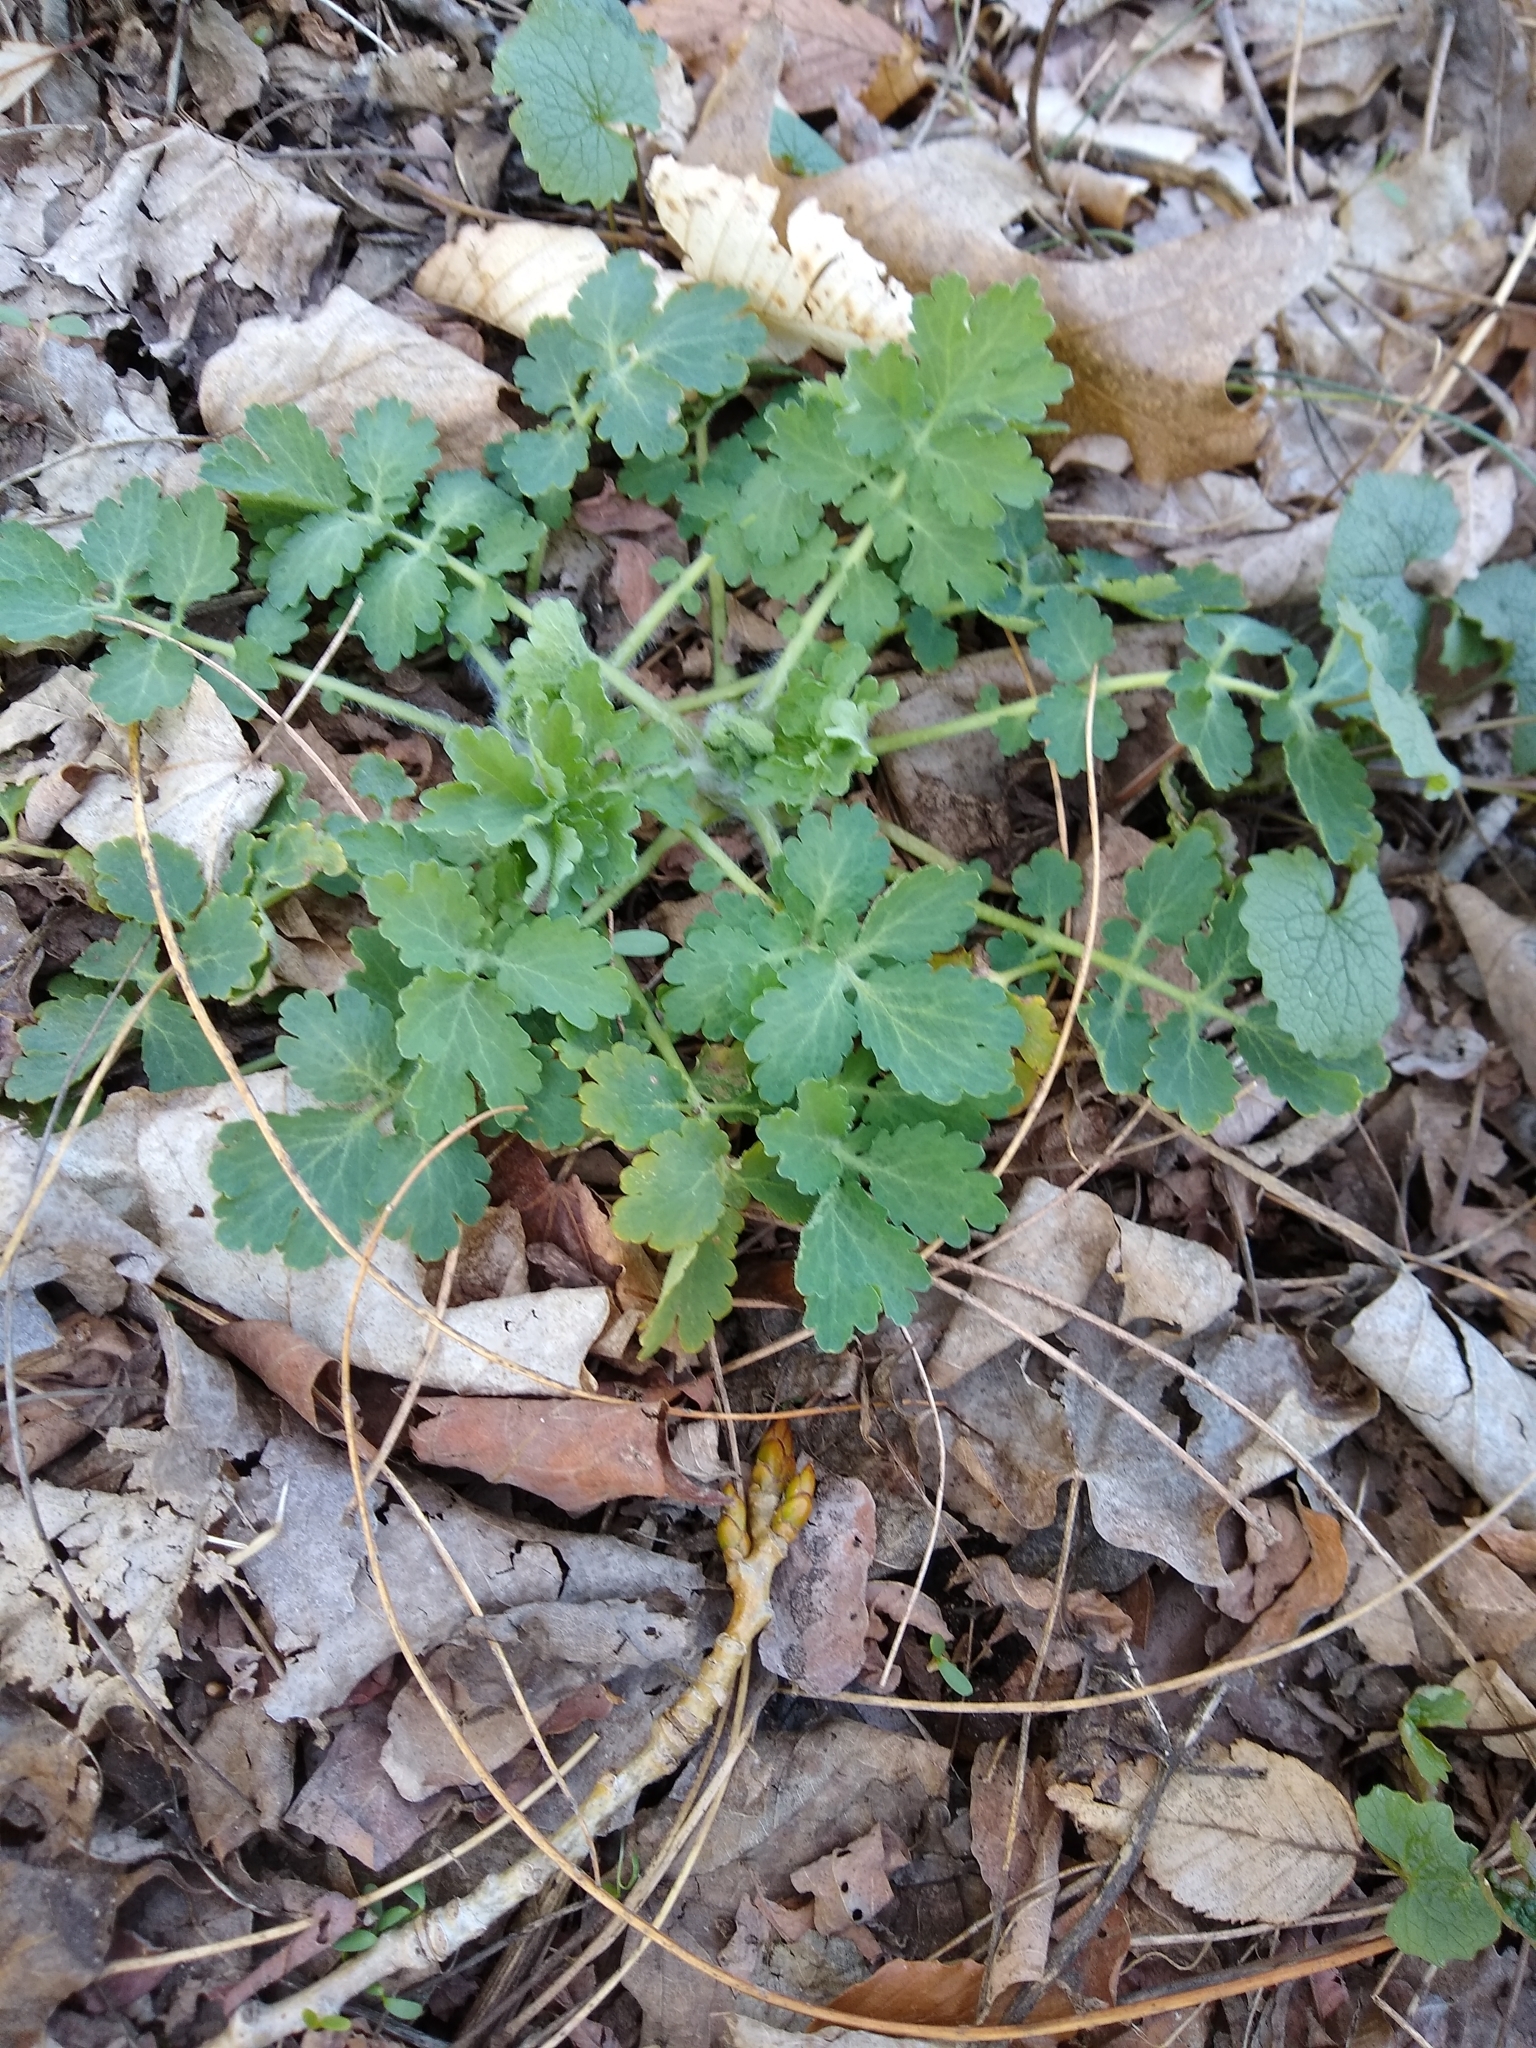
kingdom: Plantae
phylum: Tracheophyta
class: Magnoliopsida
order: Ranunculales
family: Papaveraceae
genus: Chelidonium
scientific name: Chelidonium majus
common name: Greater celandine
